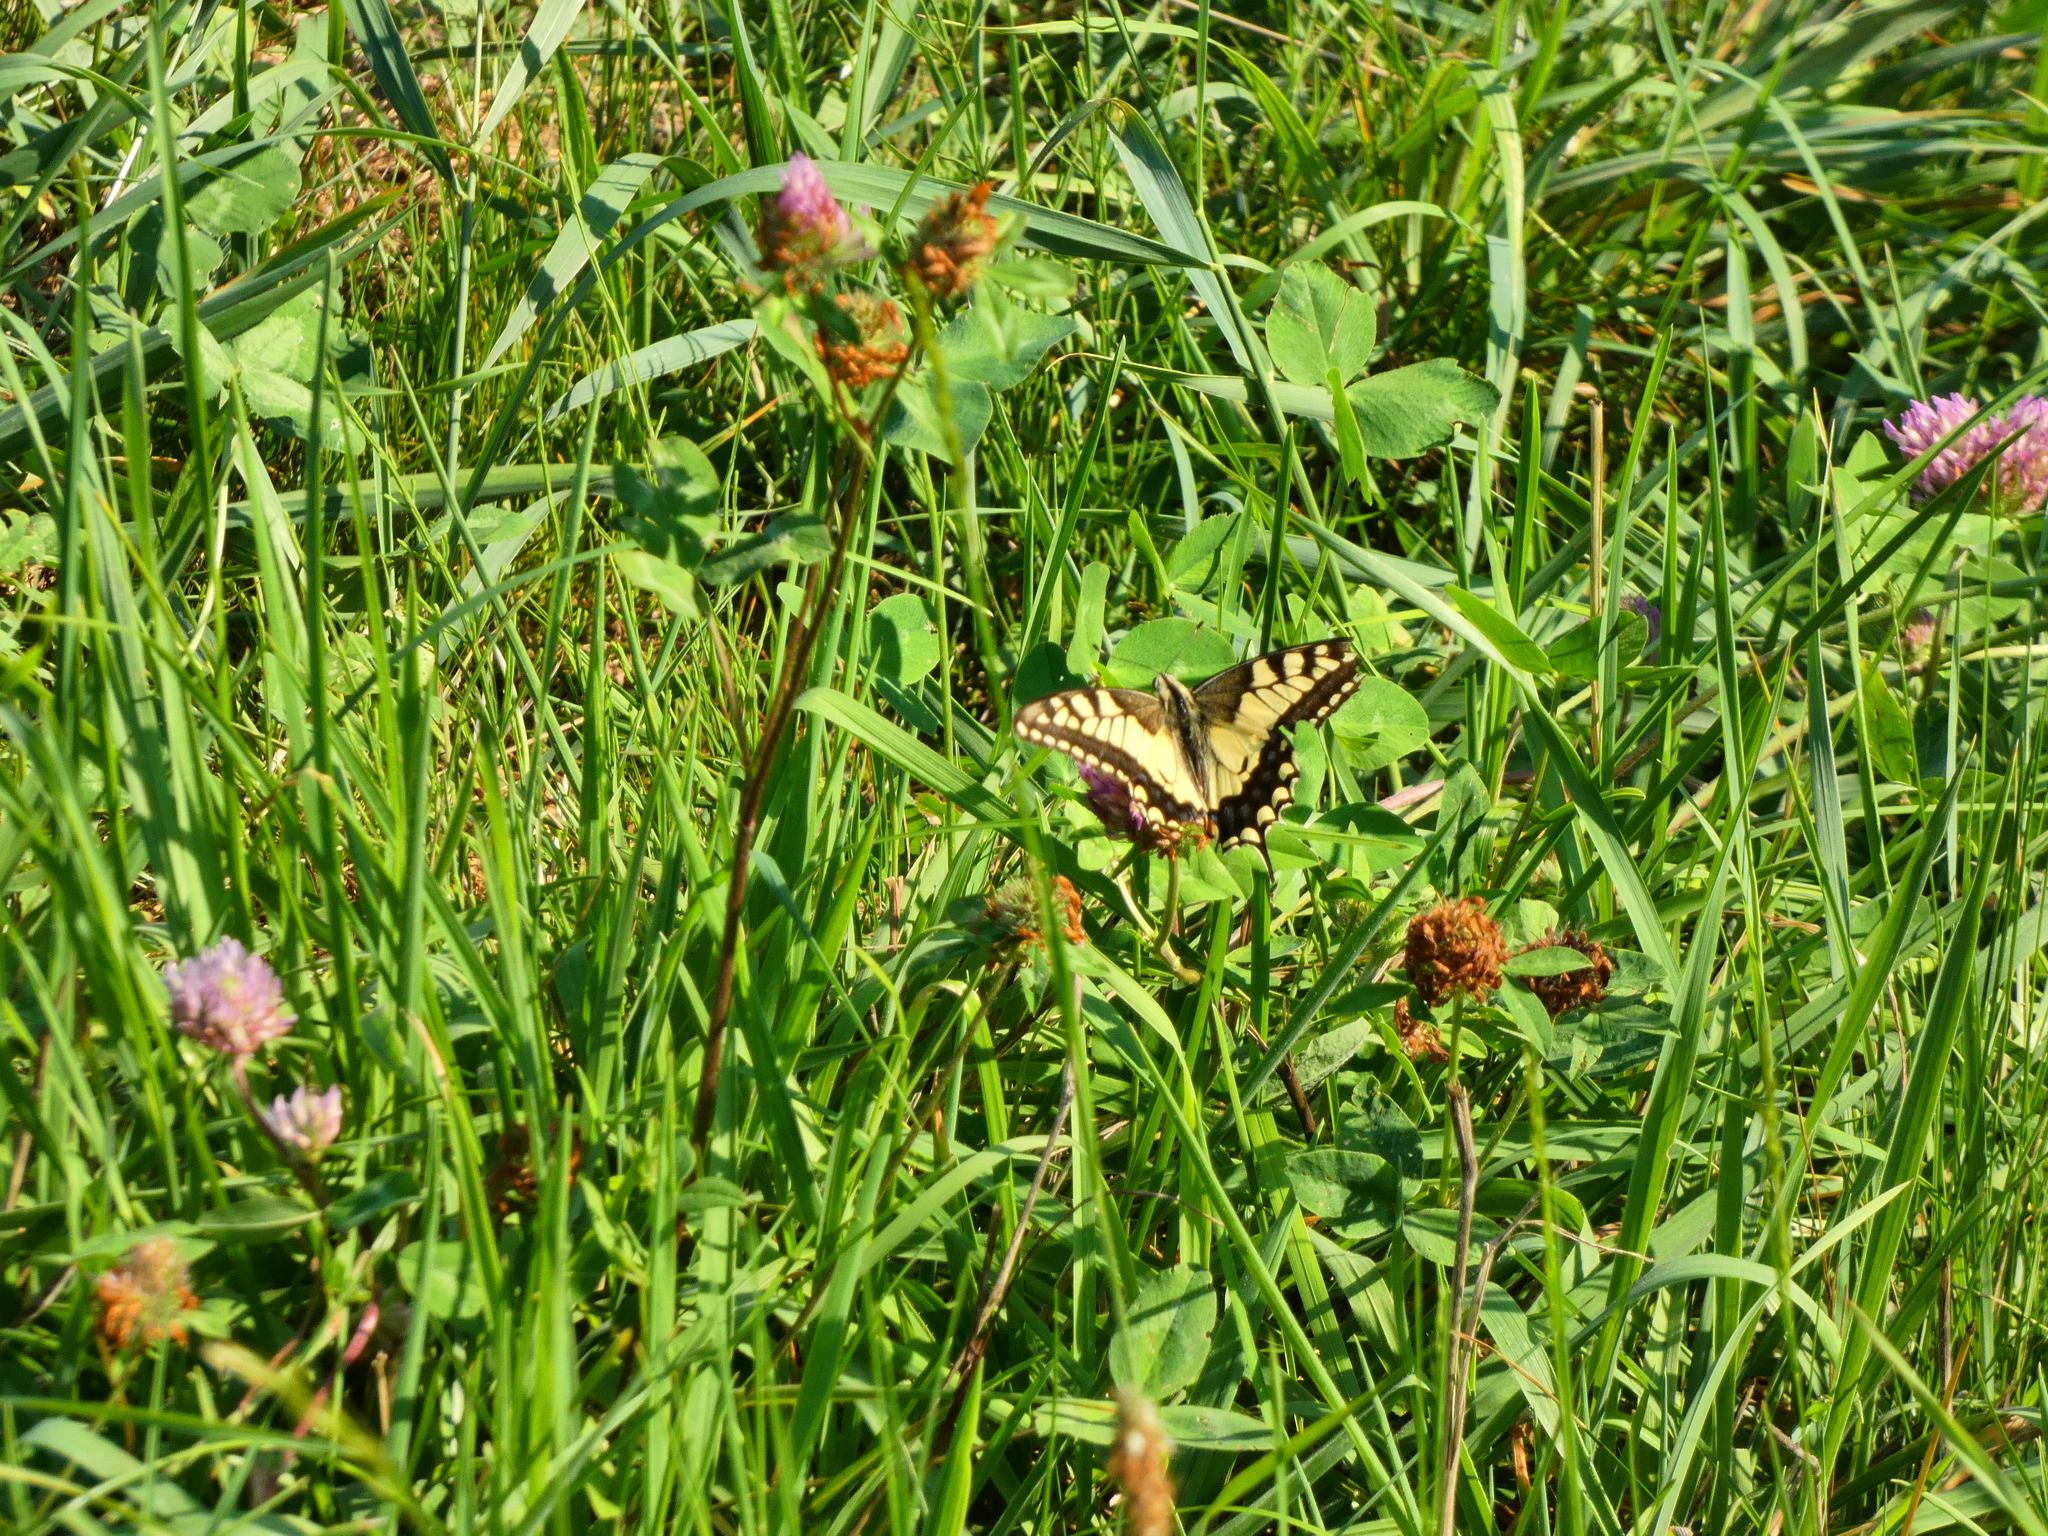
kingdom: Animalia
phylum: Arthropoda
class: Insecta
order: Lepidoptera
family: Papilionidae
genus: Papilio
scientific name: Papilio machaon
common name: Swallowtail
